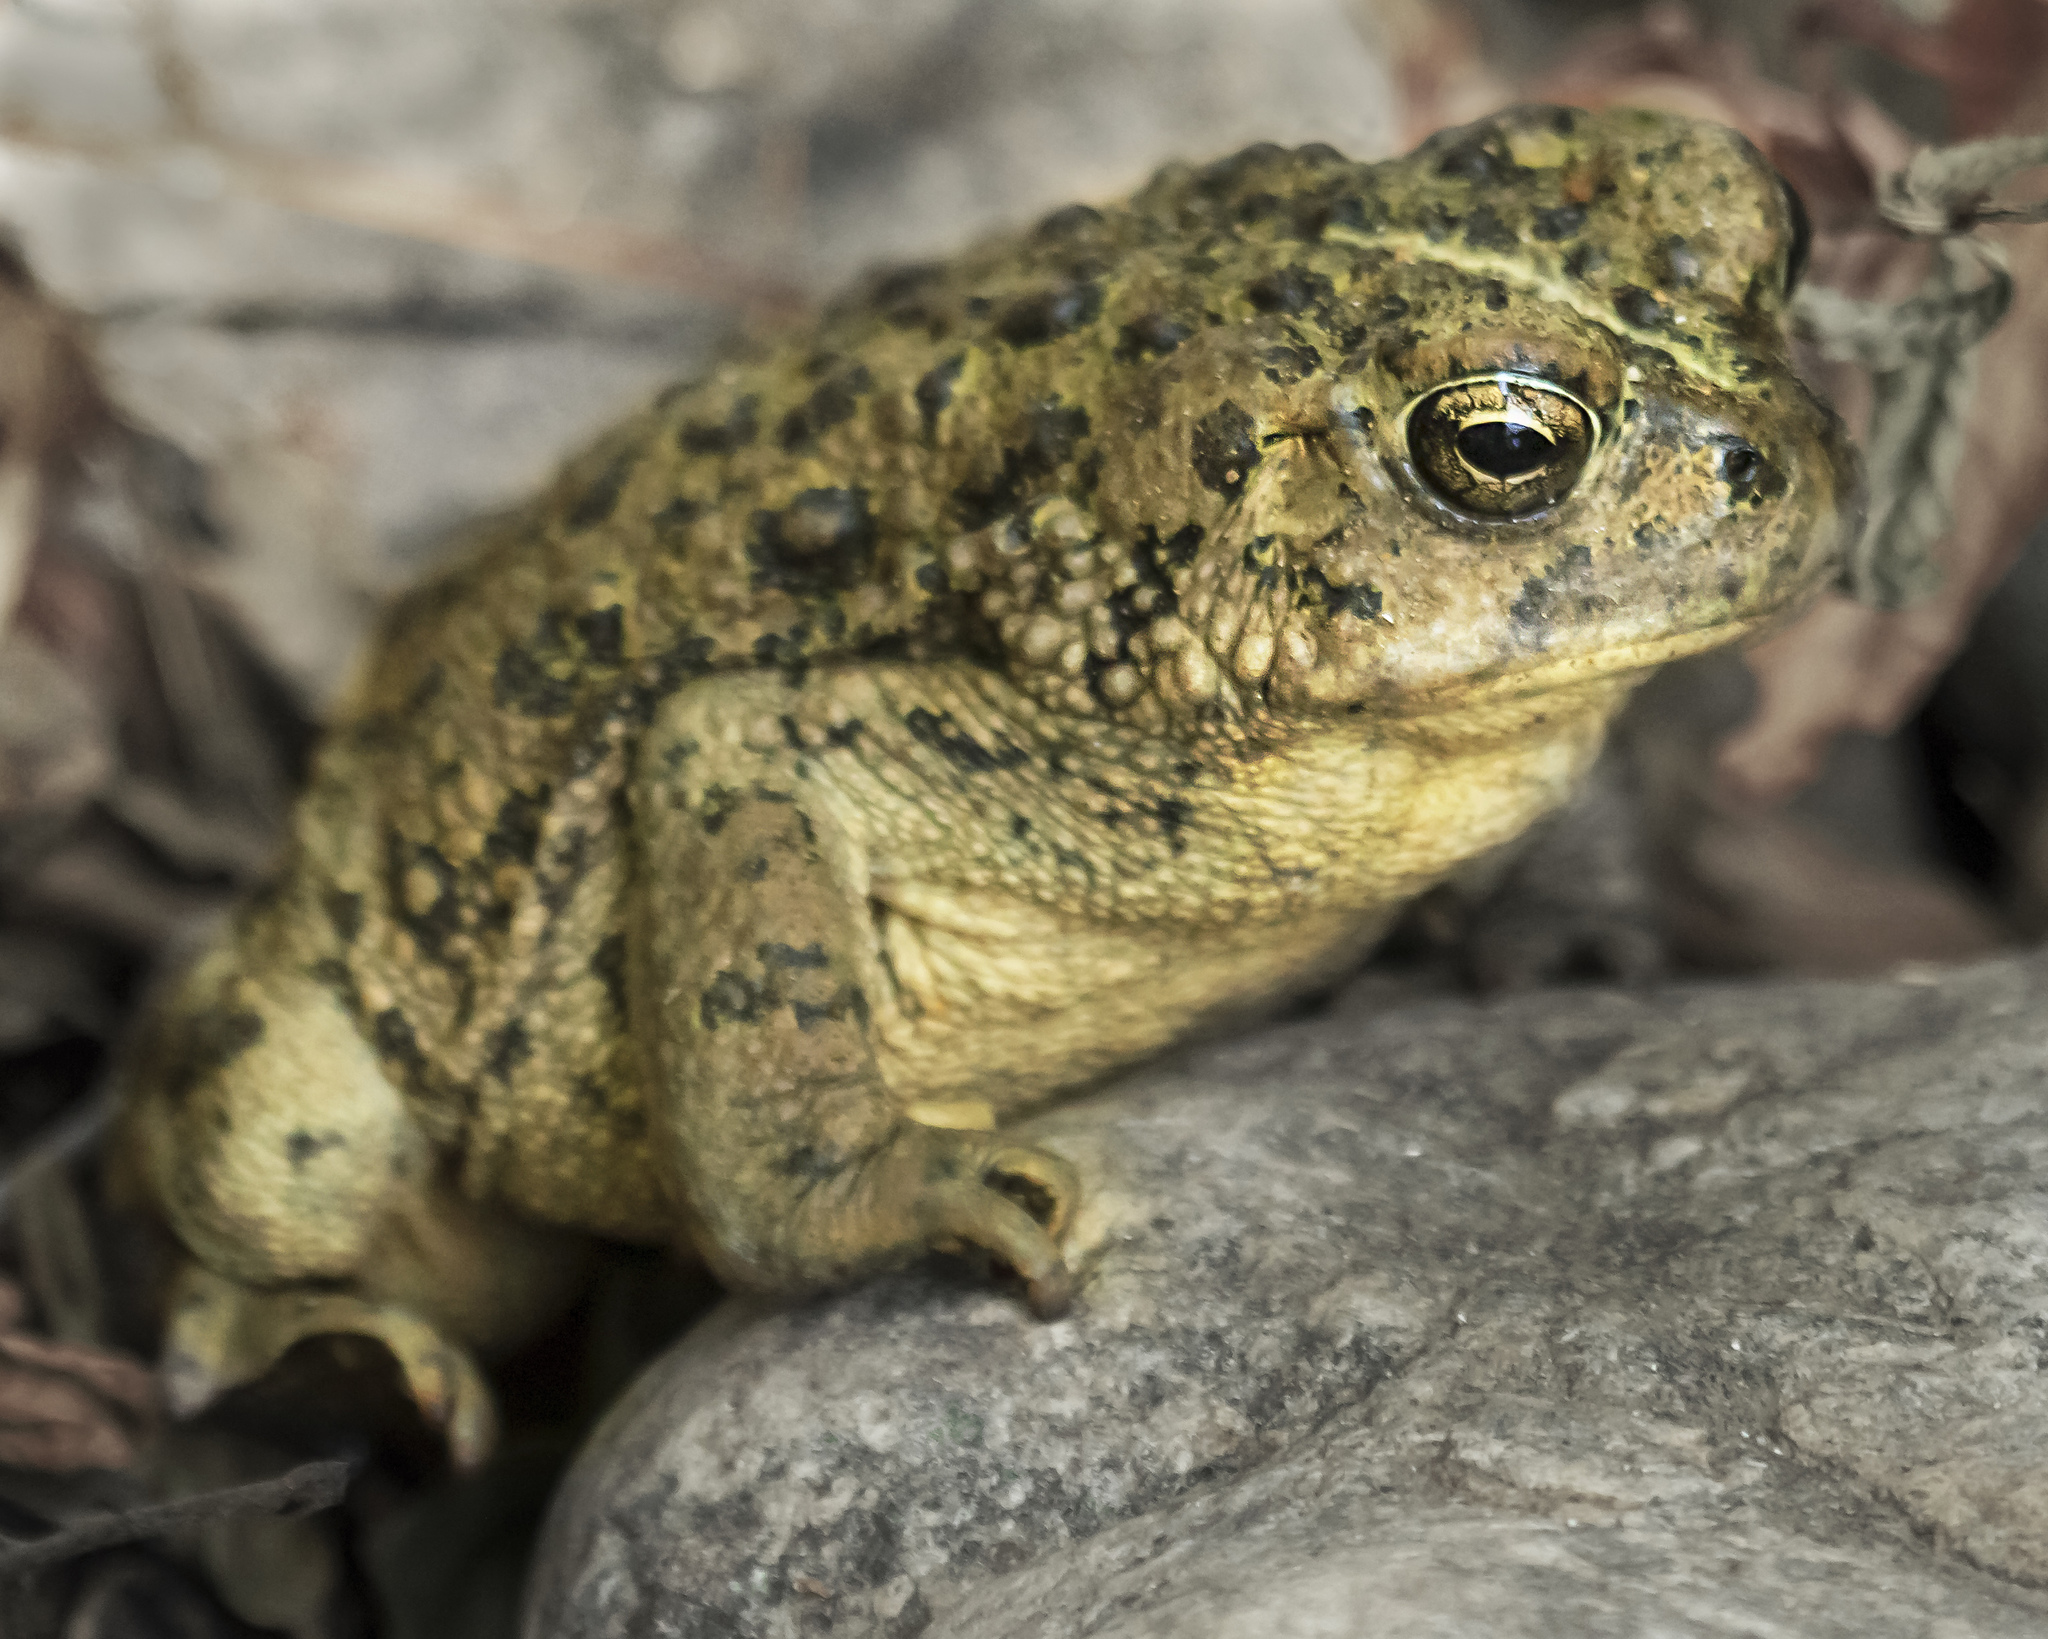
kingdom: Animalia
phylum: Chordata
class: Amphibia
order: Anura
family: Bufonidae
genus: Anaxyrus
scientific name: Anaxyrus boreas
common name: Western toad
